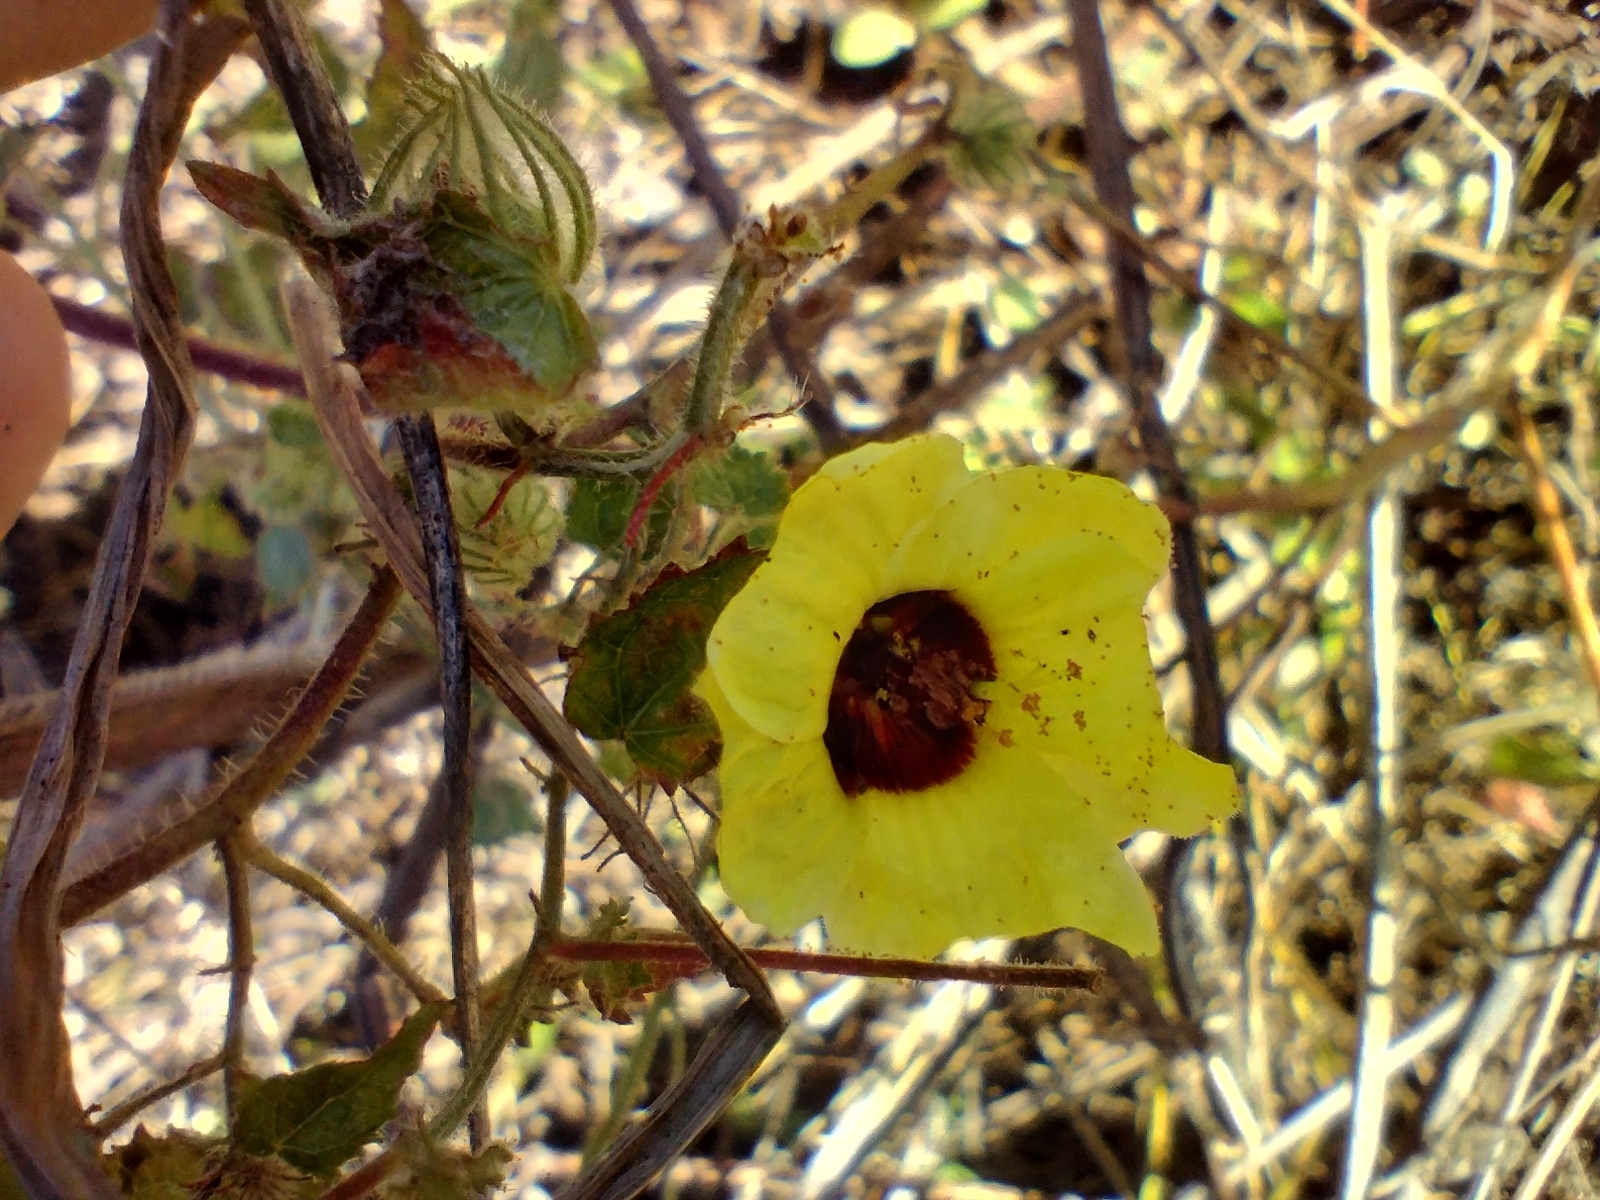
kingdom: Plantae
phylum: Tracheophyta
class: Magnoliopsida
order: Malvales
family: Malvaceae
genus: Pavonia
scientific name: Pavonia cancellata
